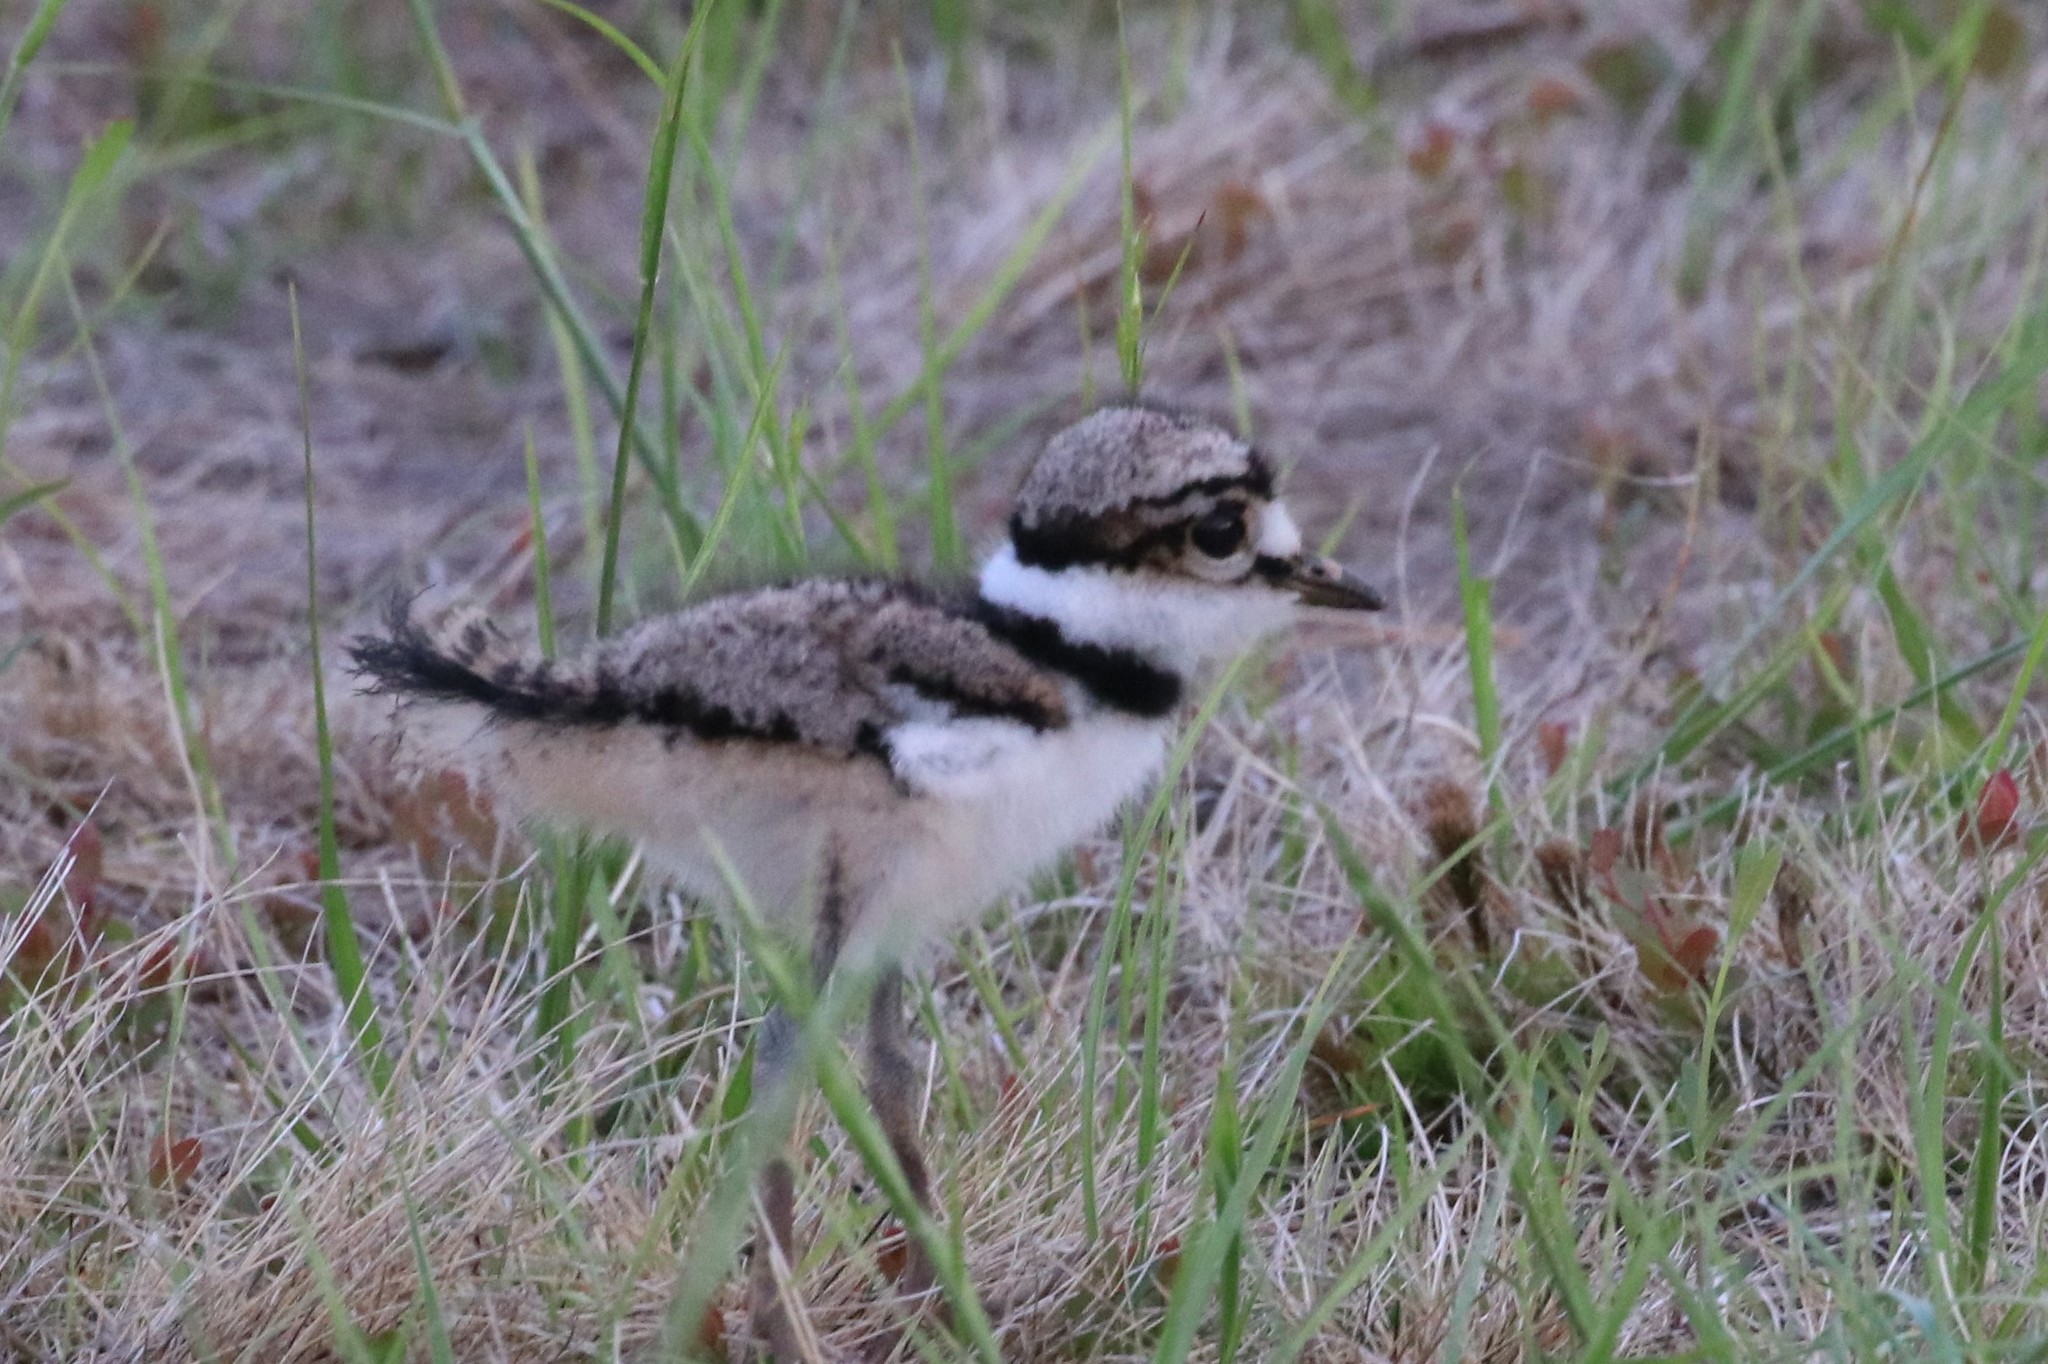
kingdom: Animalia
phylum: Chordata
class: Aves
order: Charadriiformes
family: Charadriidae
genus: Charadrius
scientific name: Charadrius vociferus
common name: Killdeer
